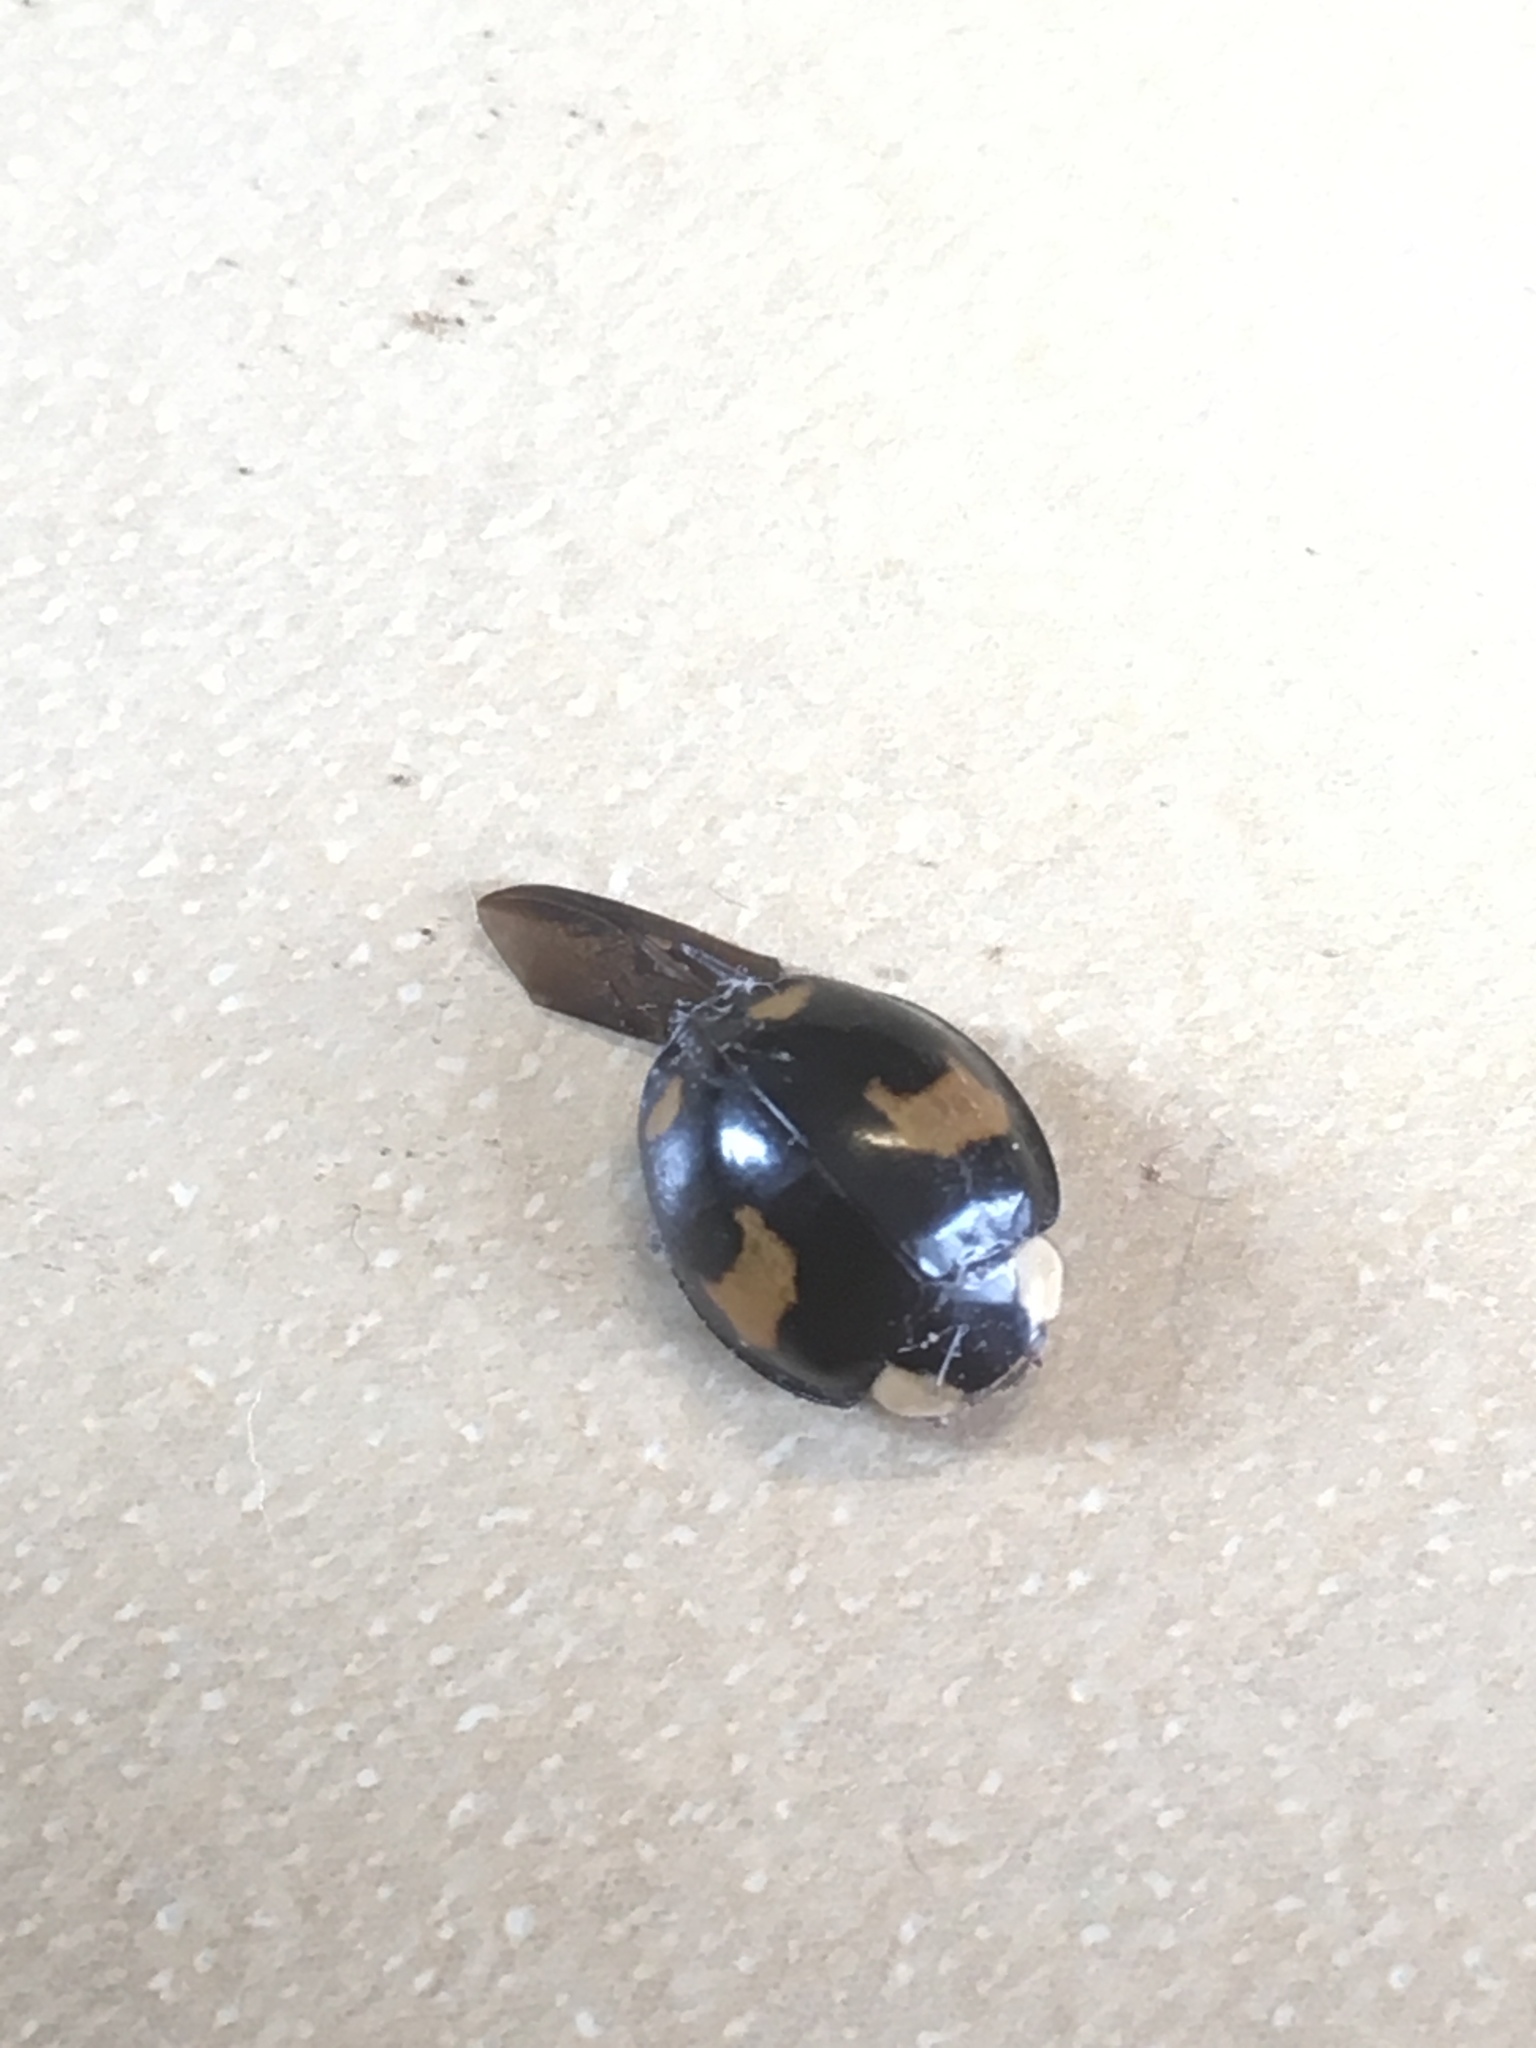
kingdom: Animalia
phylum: Arthropoda
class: Insecta
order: Coleoptera
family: Coccinellidae
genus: Harmonia
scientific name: Harmonia axyridis
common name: Harlequin ladybird
